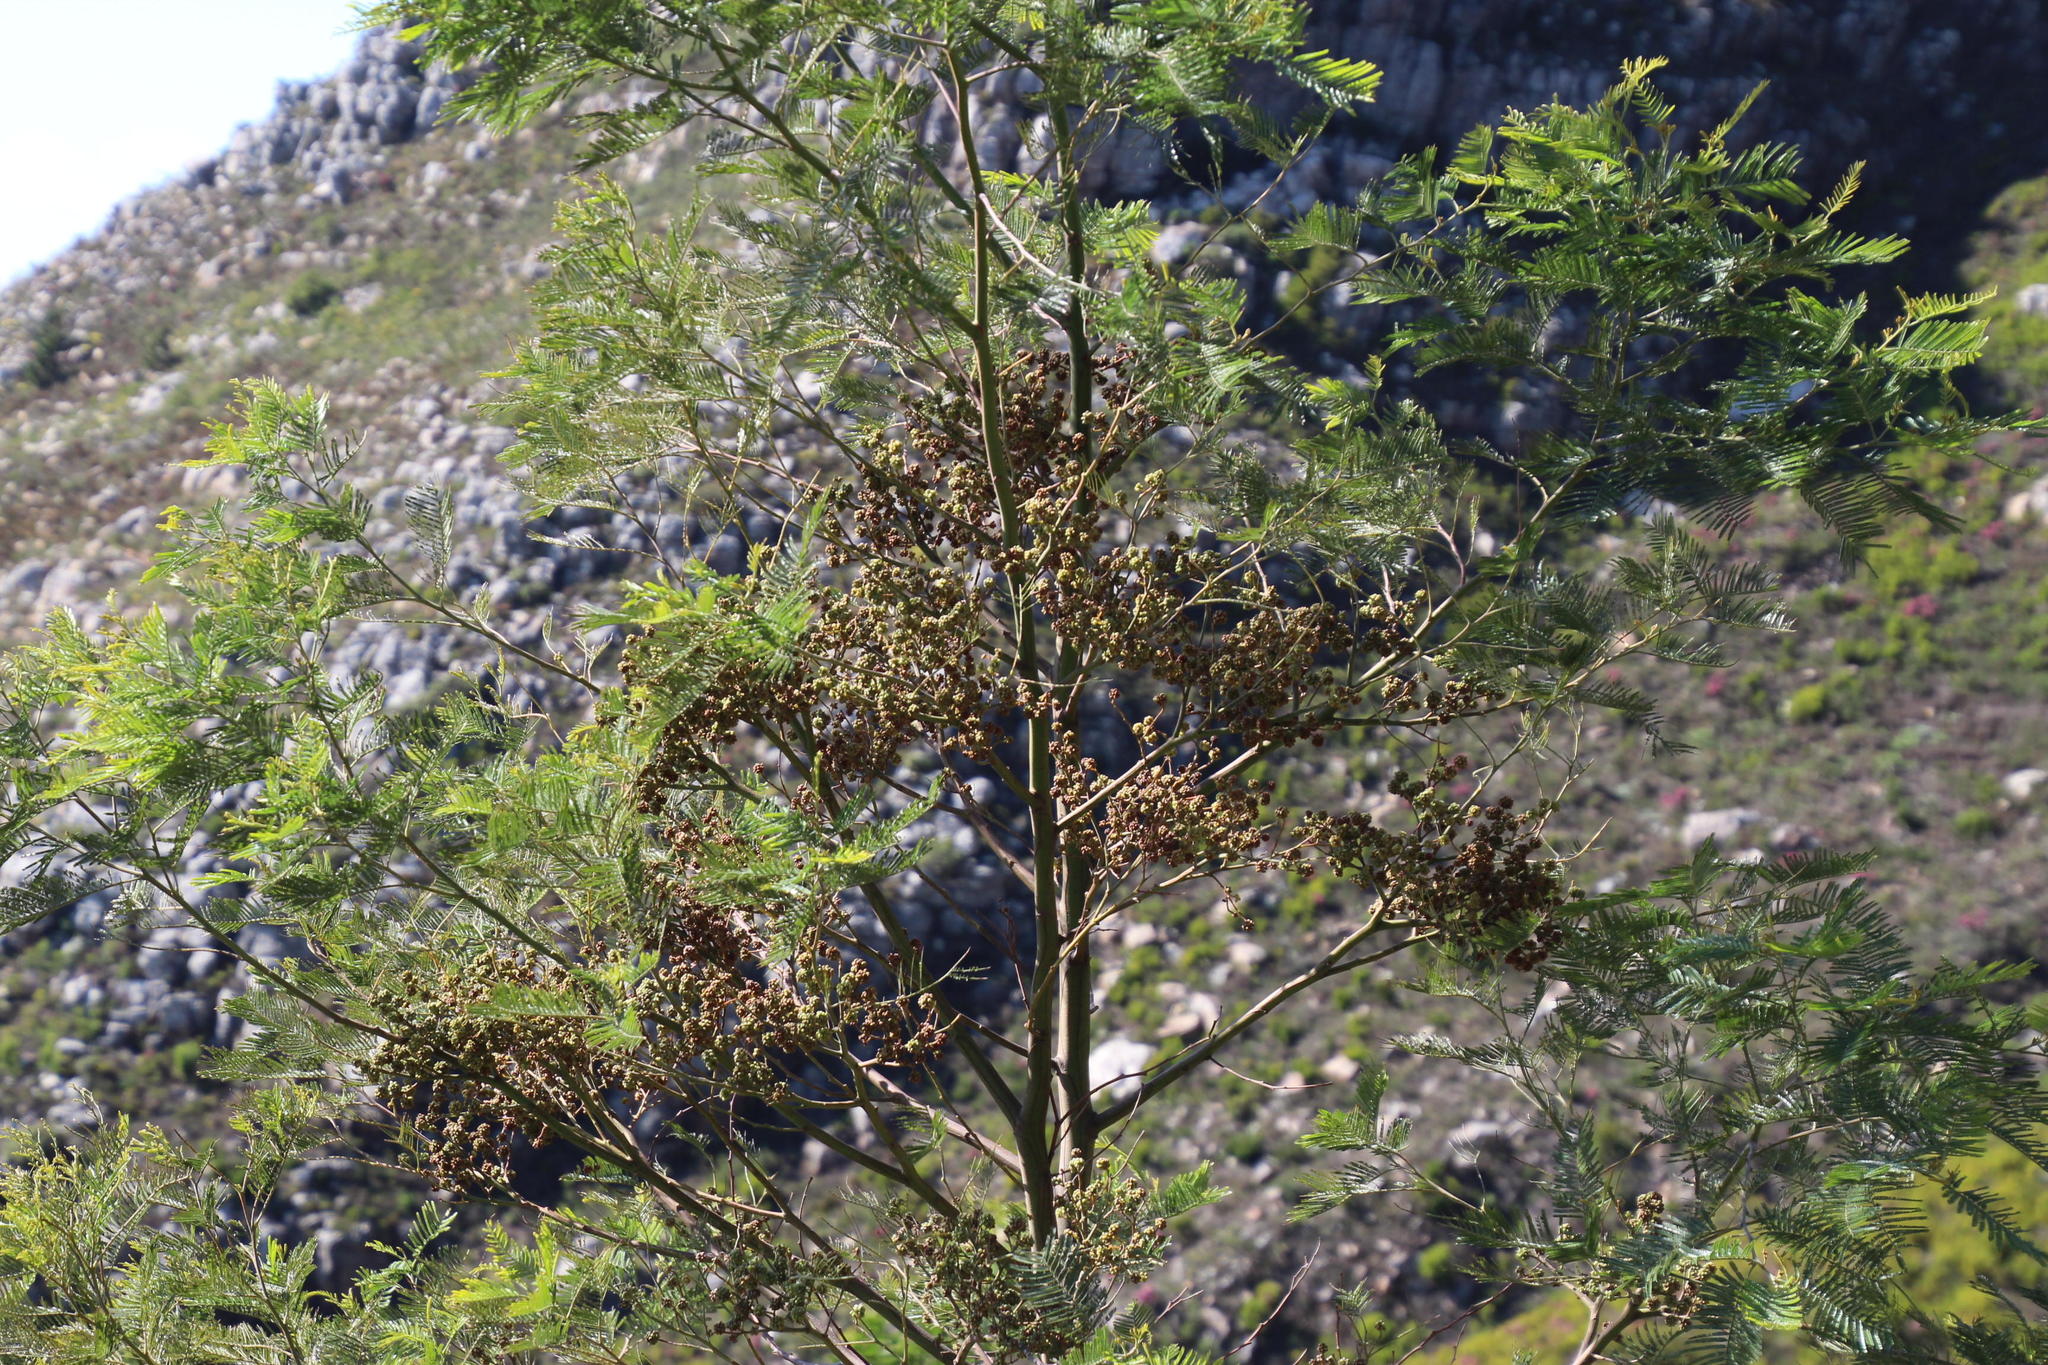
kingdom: Plantae
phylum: Tracheophyta
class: Magnoliopsida
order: Fabales
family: Fabaceae
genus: Acacia
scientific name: Acacia mearnsii
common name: Black wattle
